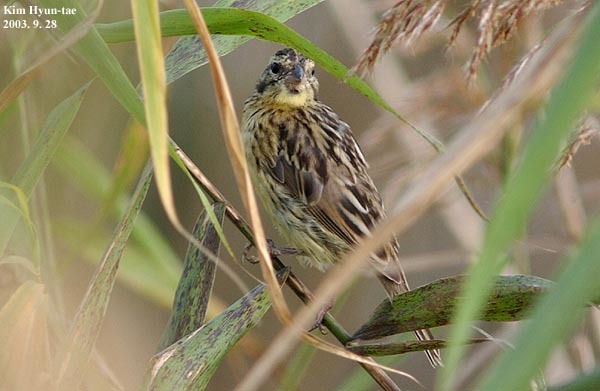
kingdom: Animalia
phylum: Chordata
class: Aves
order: Passeriformes
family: Emberizidae
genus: Emberiza
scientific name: Emberiza aureola
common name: Yellow-breasted bunting
